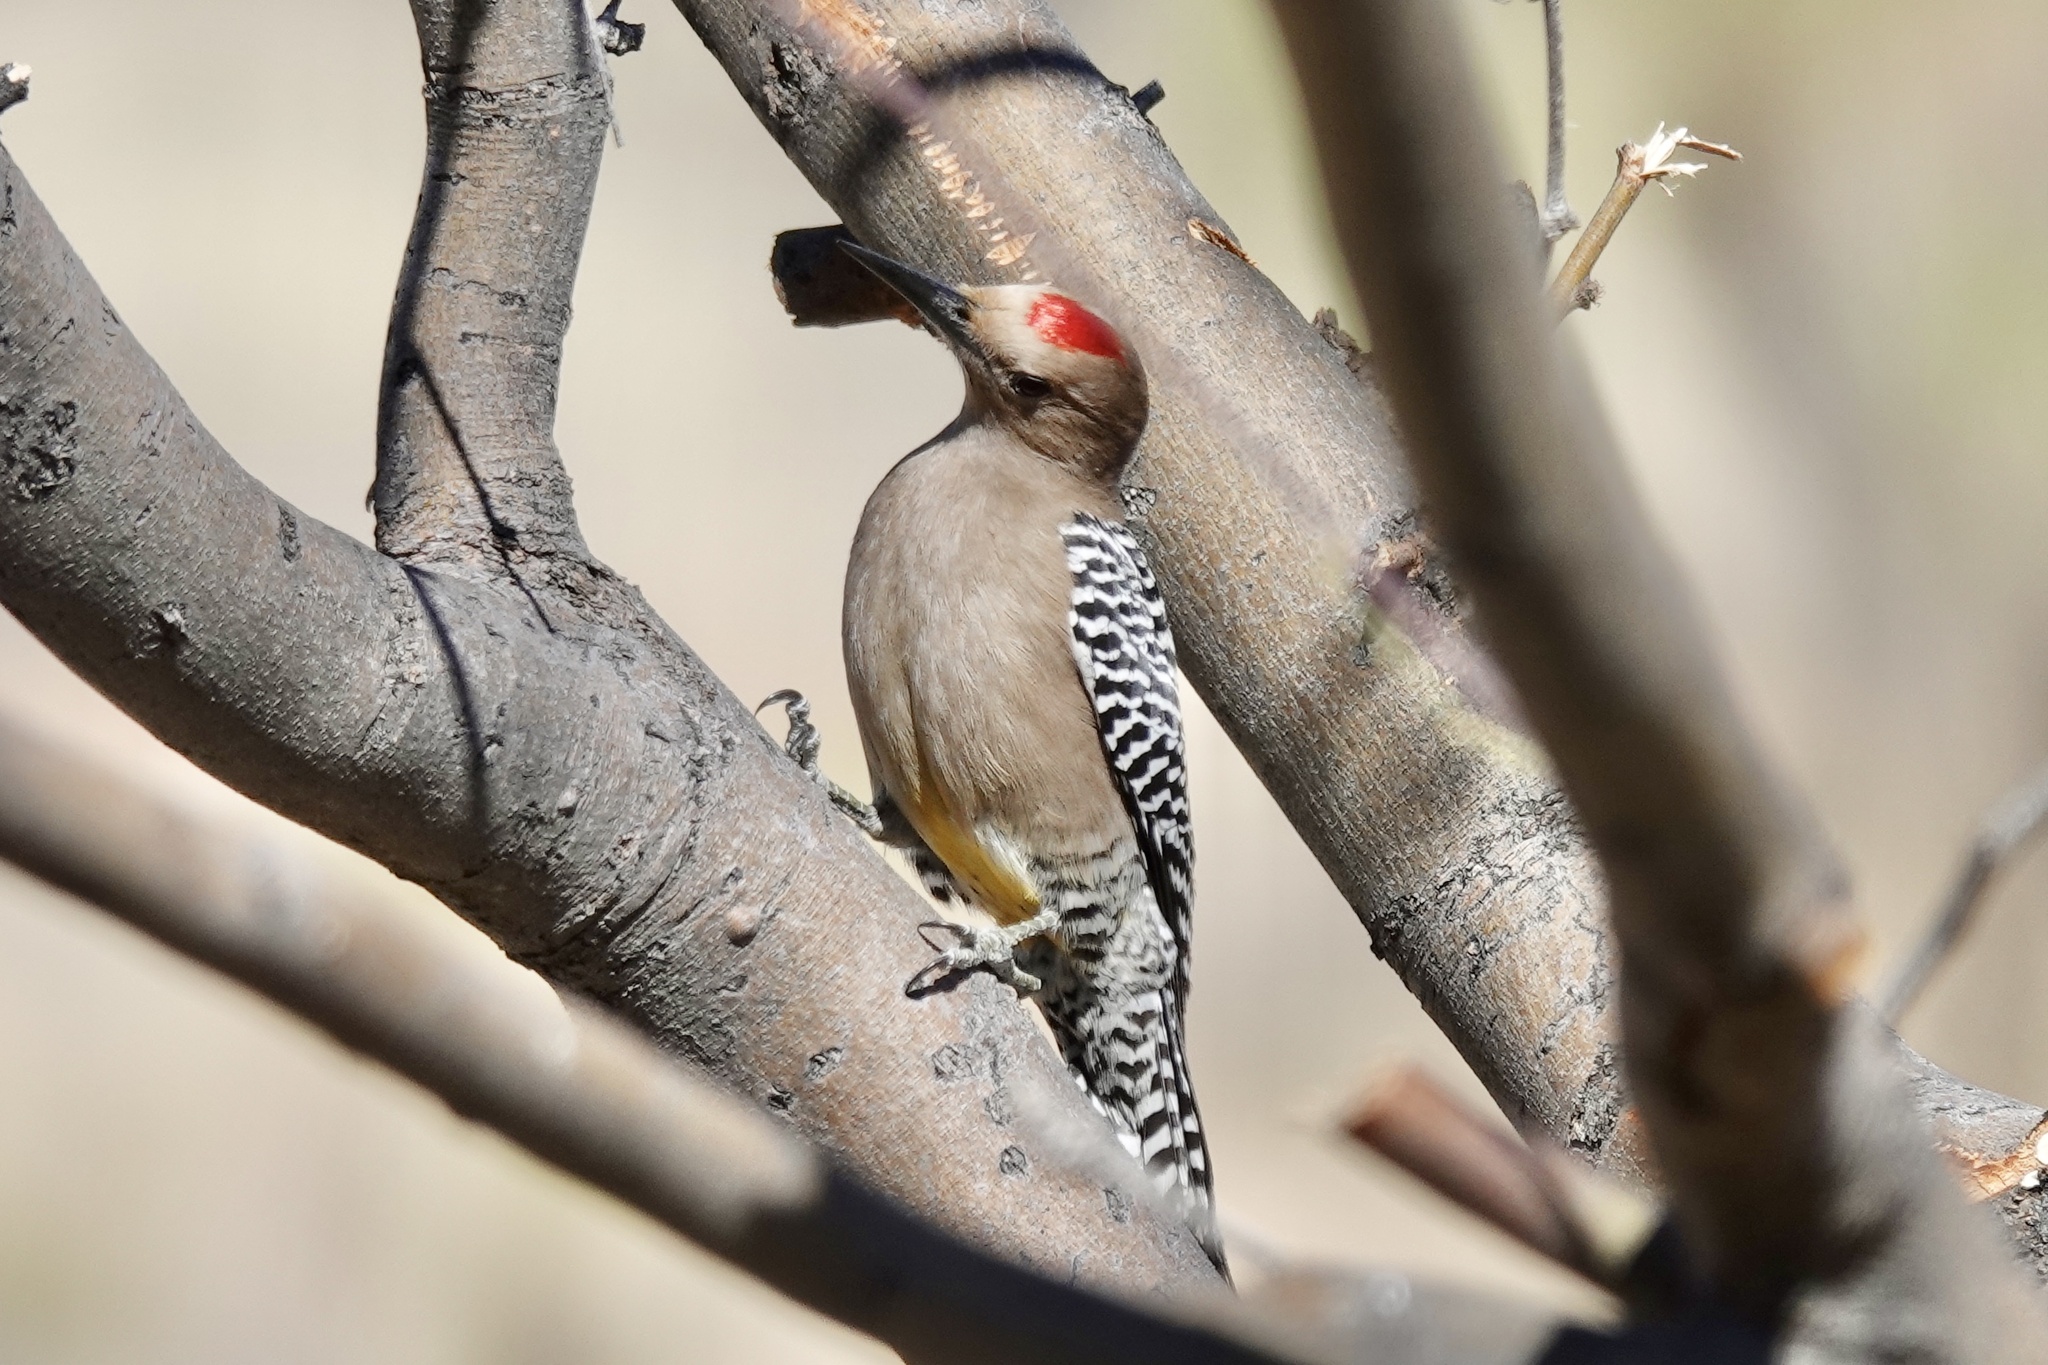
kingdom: Animalia
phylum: Chordata
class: Aves
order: Piciformes
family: Picidae
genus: Melanerpes
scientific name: Melanerpes uropygialis
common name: Gila woodpecker
